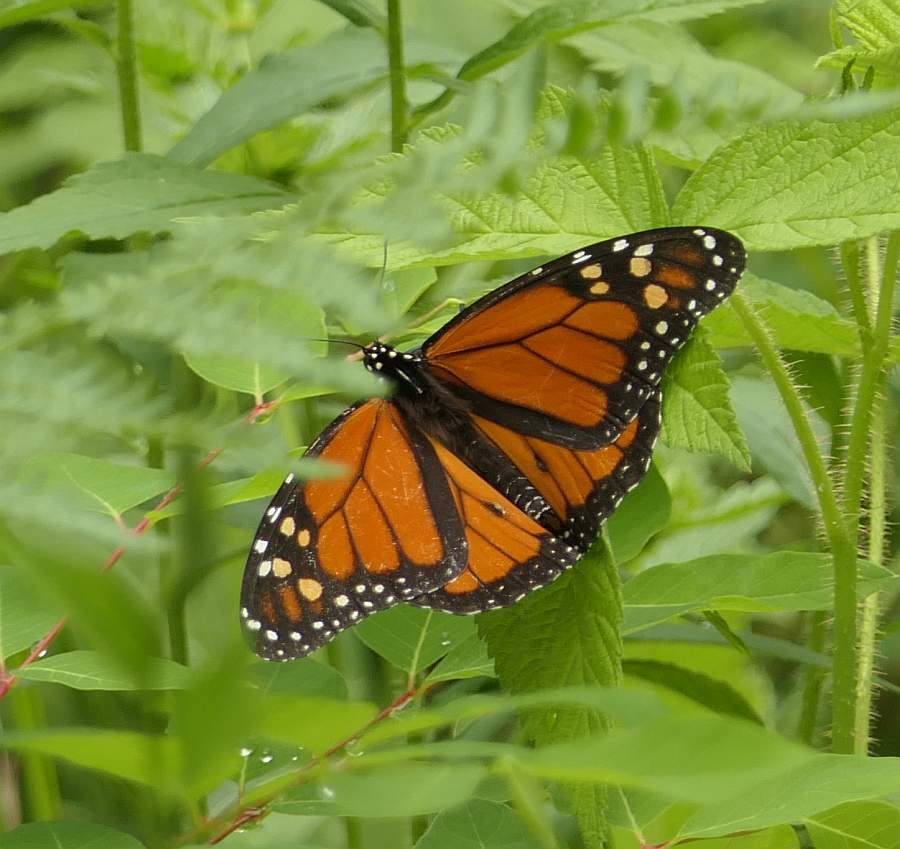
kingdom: Animalia
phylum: Arthropoda
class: Insecta
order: Lepidoptera
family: Nymphalidae
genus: Danaus
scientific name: Danaus plexippus
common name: Monarch
